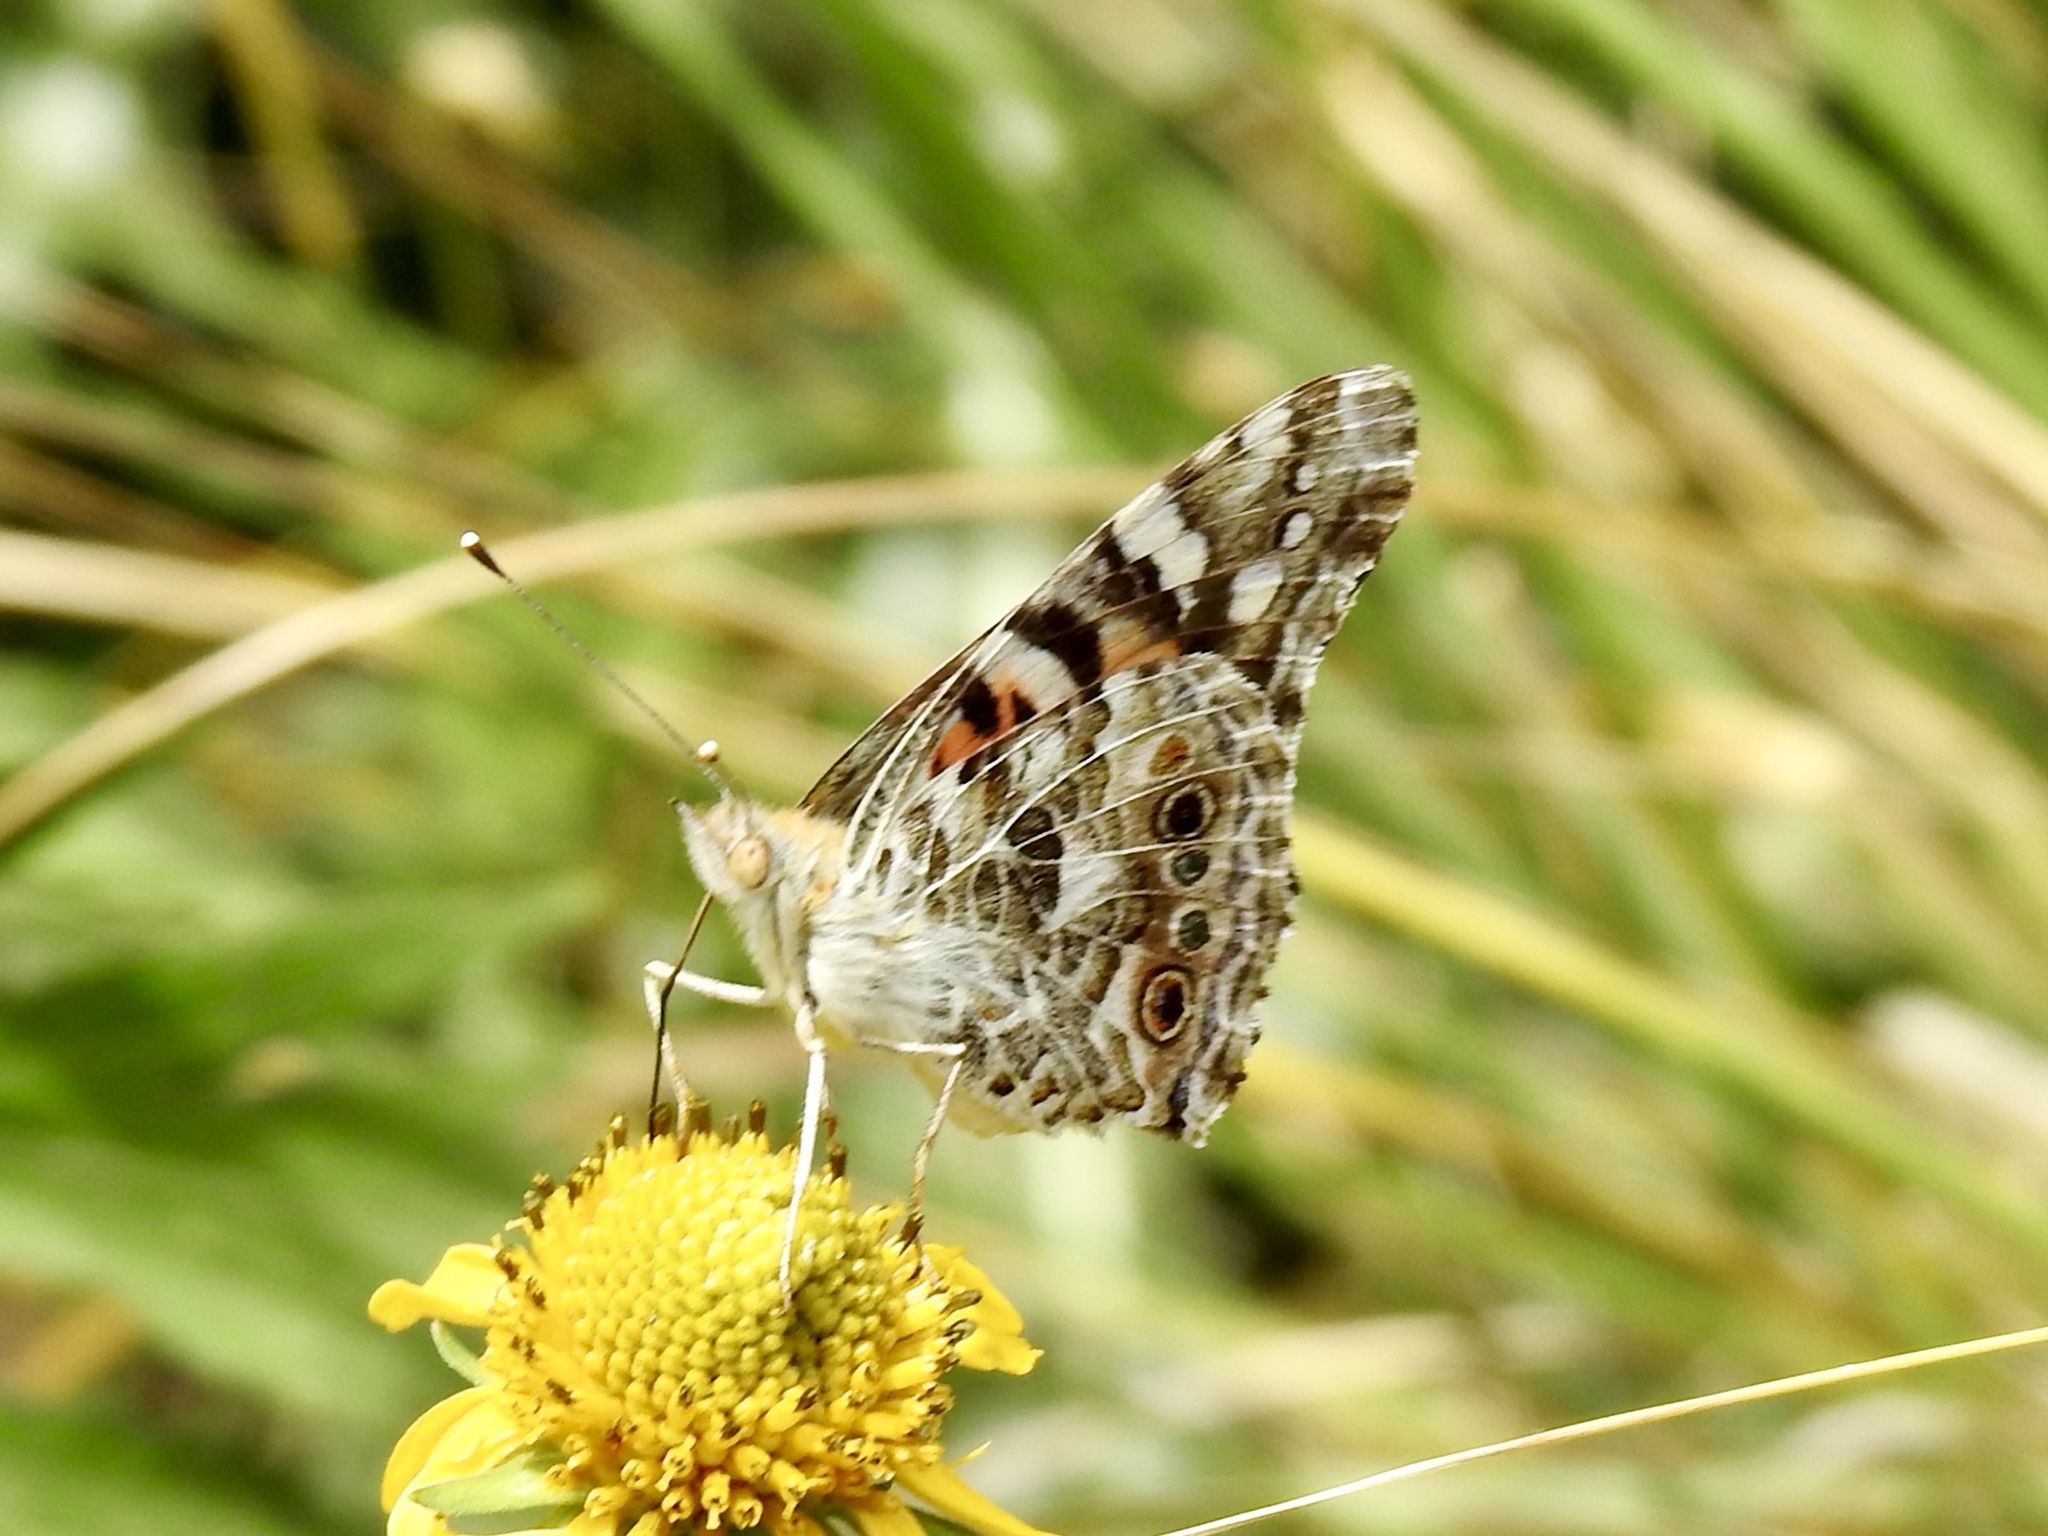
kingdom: Animalia
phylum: Arthropoda
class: Insecta
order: Lepidoptera
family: Nymphalidae
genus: Vanessa
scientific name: Vanessa cardui
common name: Painted lady
